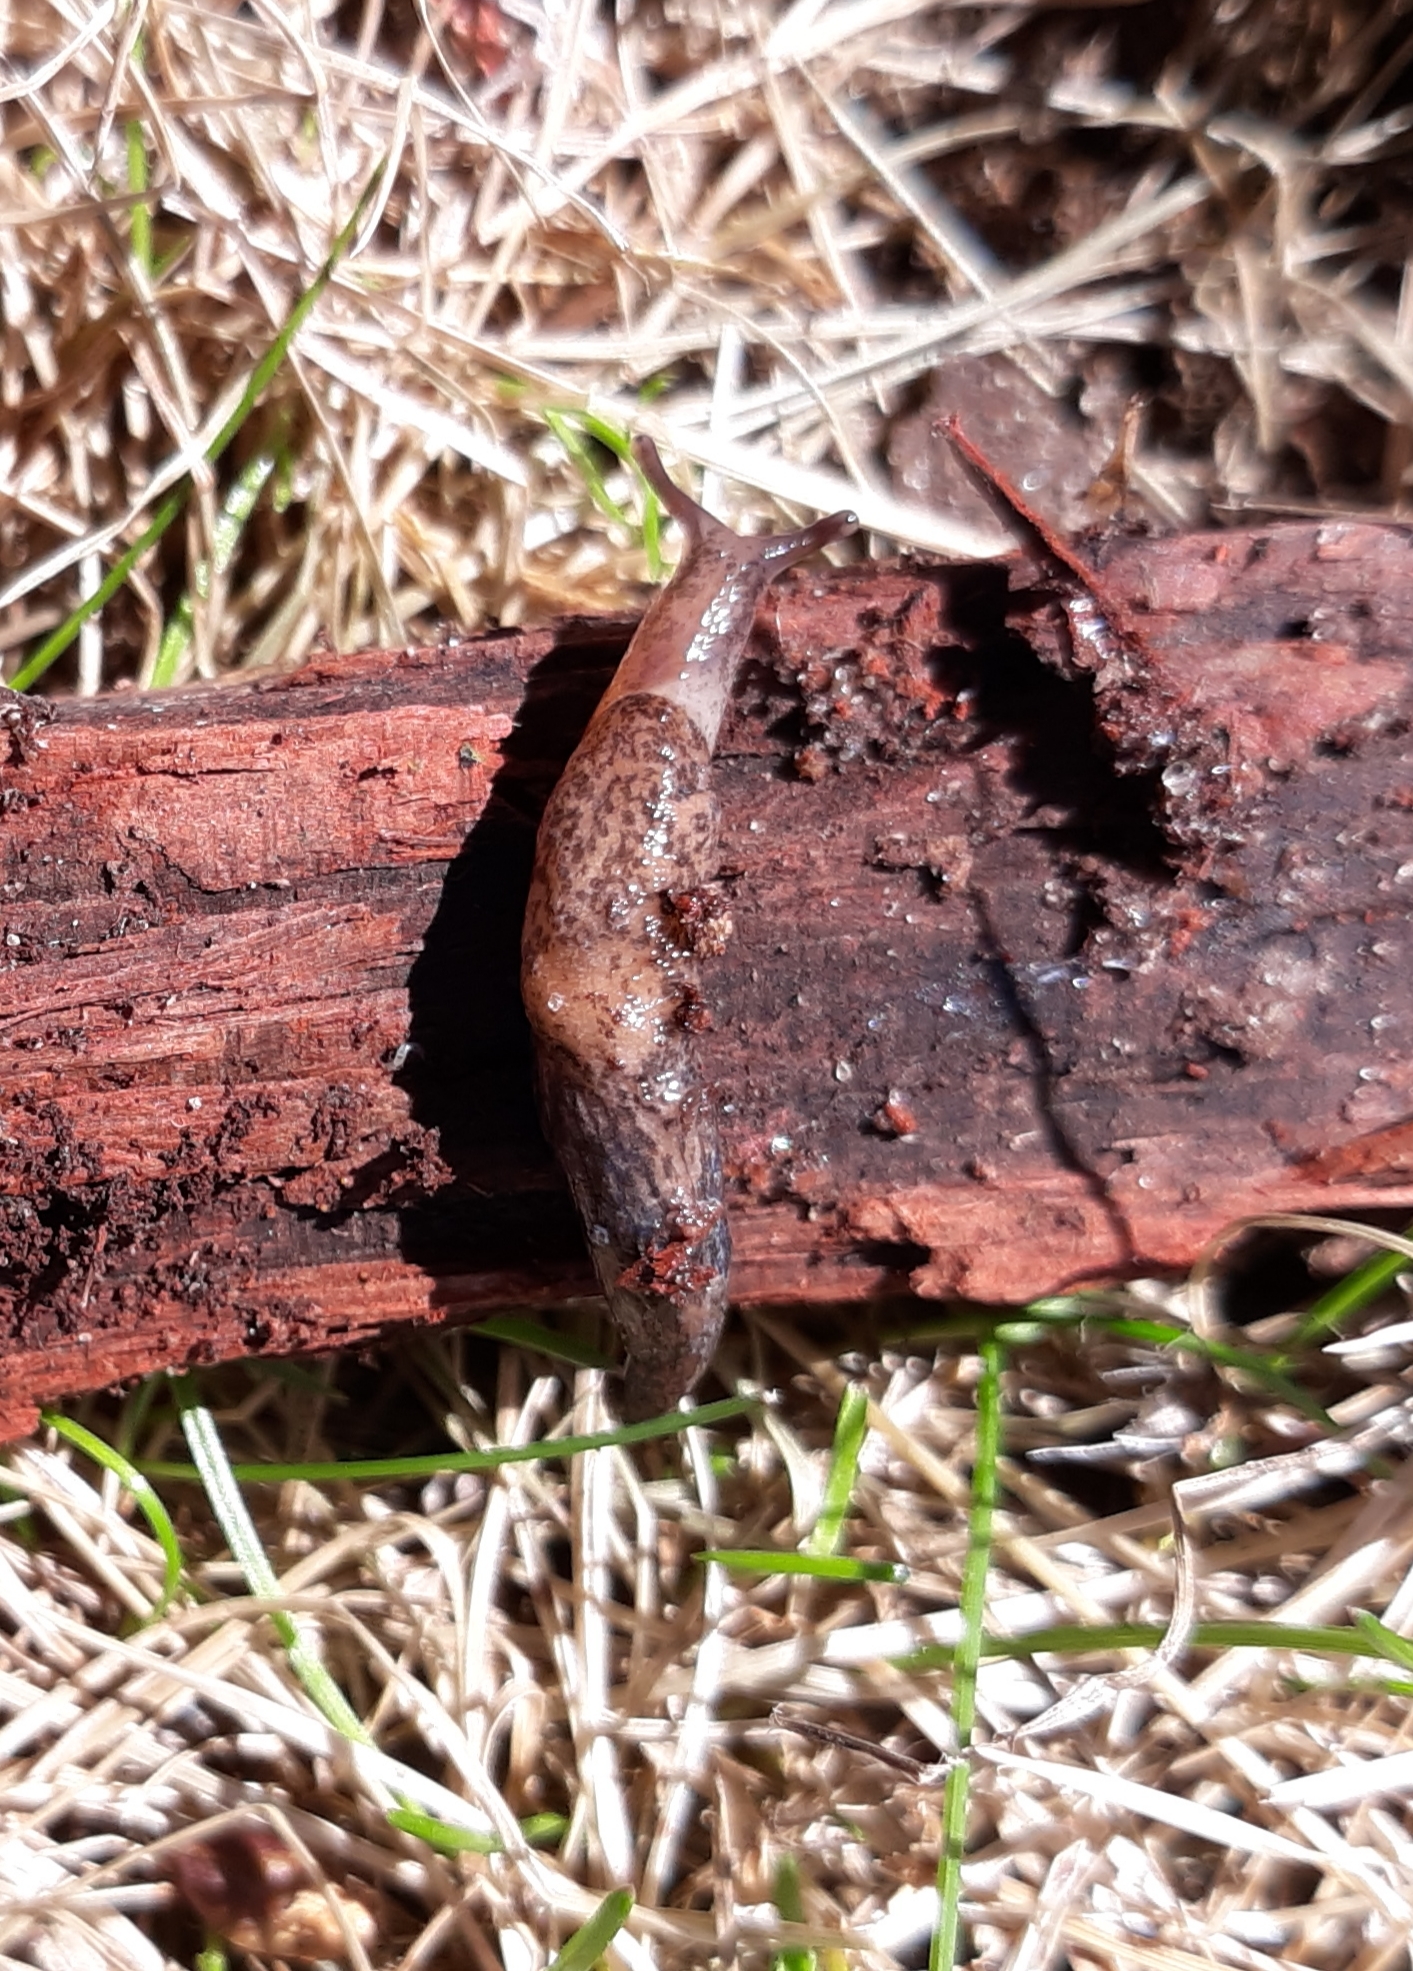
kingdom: Animalia
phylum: Mollusca
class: Gastropoda
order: Stylommatophora
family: Agriolimacidae
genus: Deroceras
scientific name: Deroceras reticulatum
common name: Gray field slug
